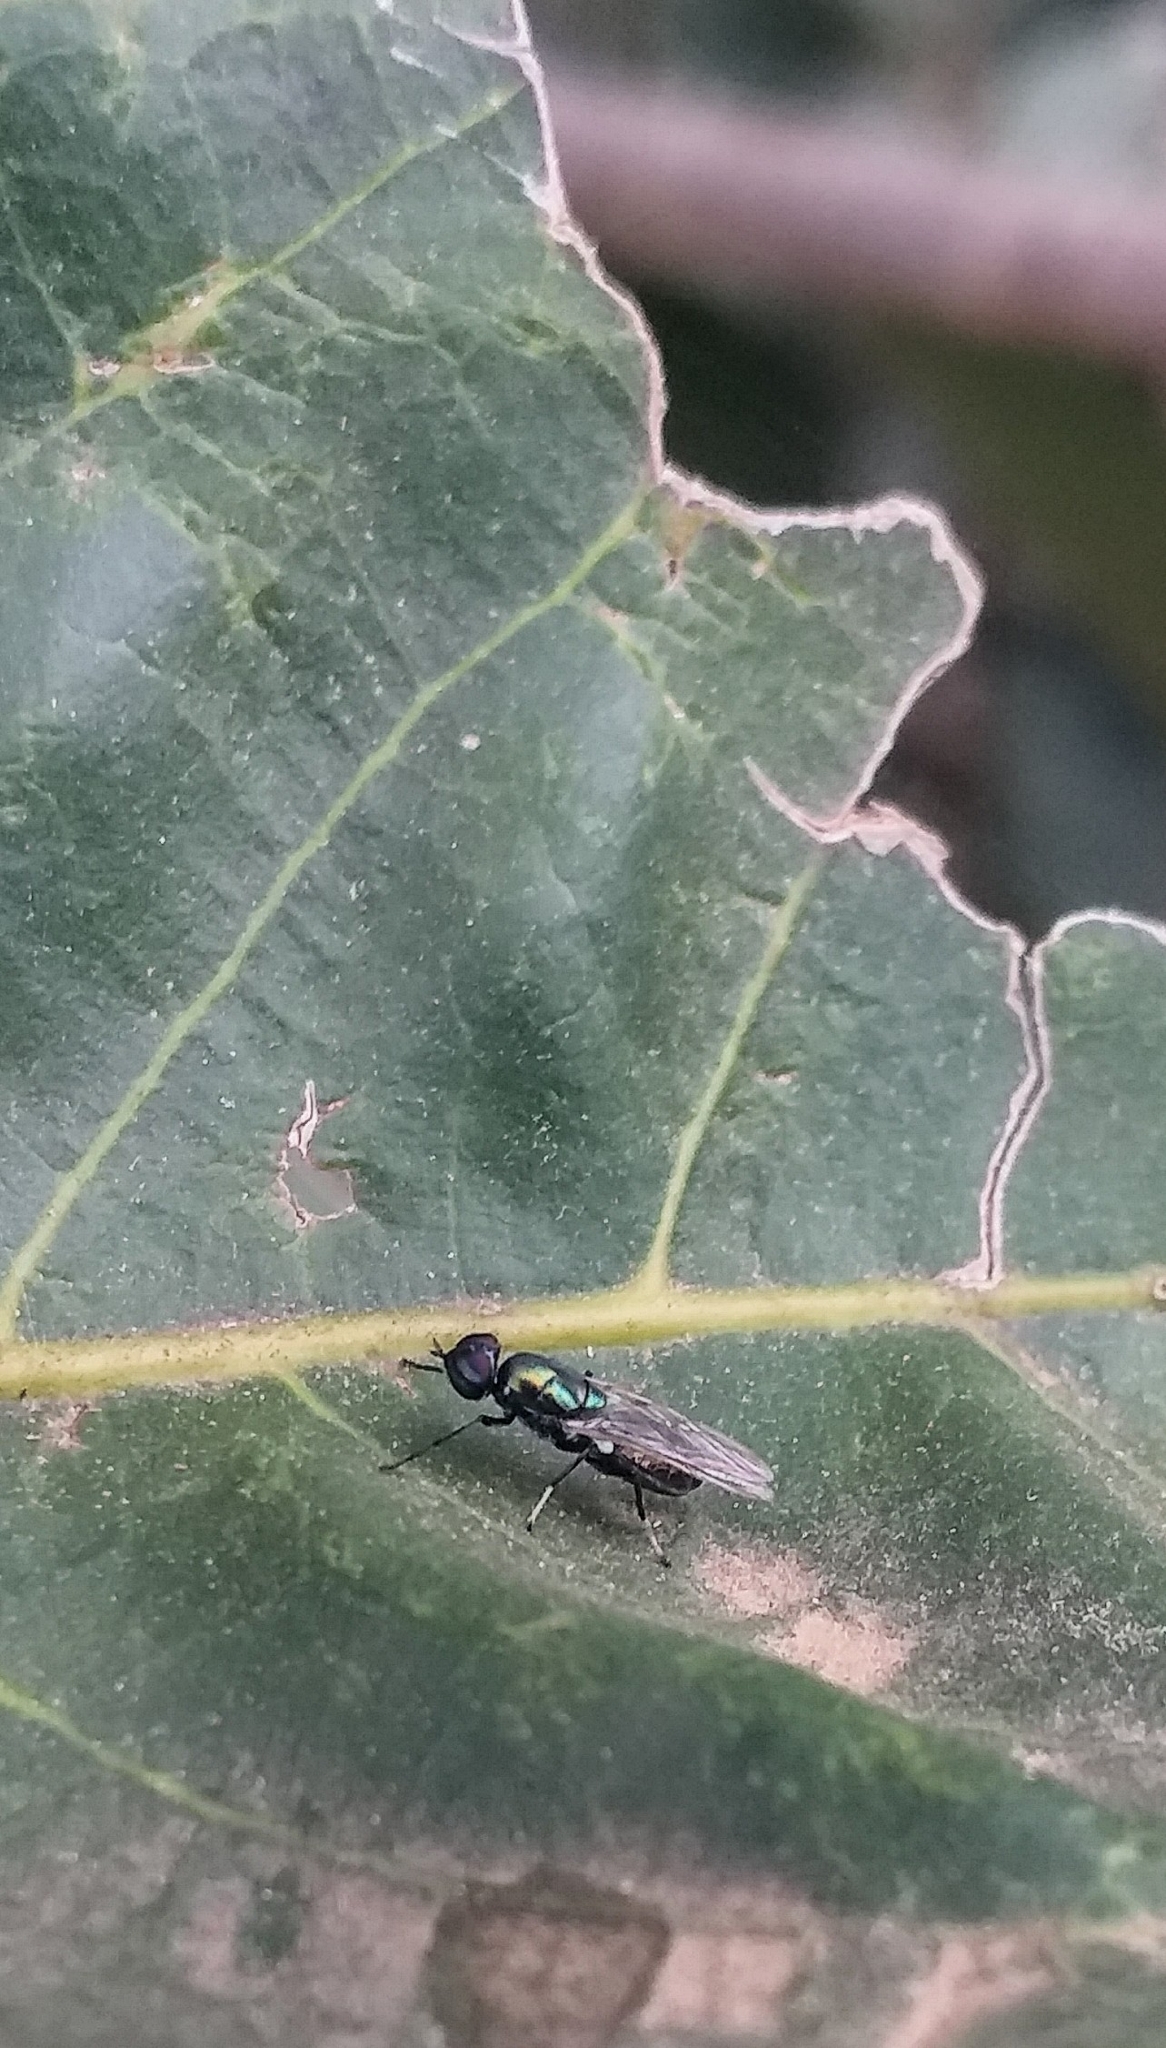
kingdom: Animalia
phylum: Arthropoda
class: Insecta
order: Diptera
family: Stratiomyidae
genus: Prosopochrysa
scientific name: Prosopochrysa vitripennis
